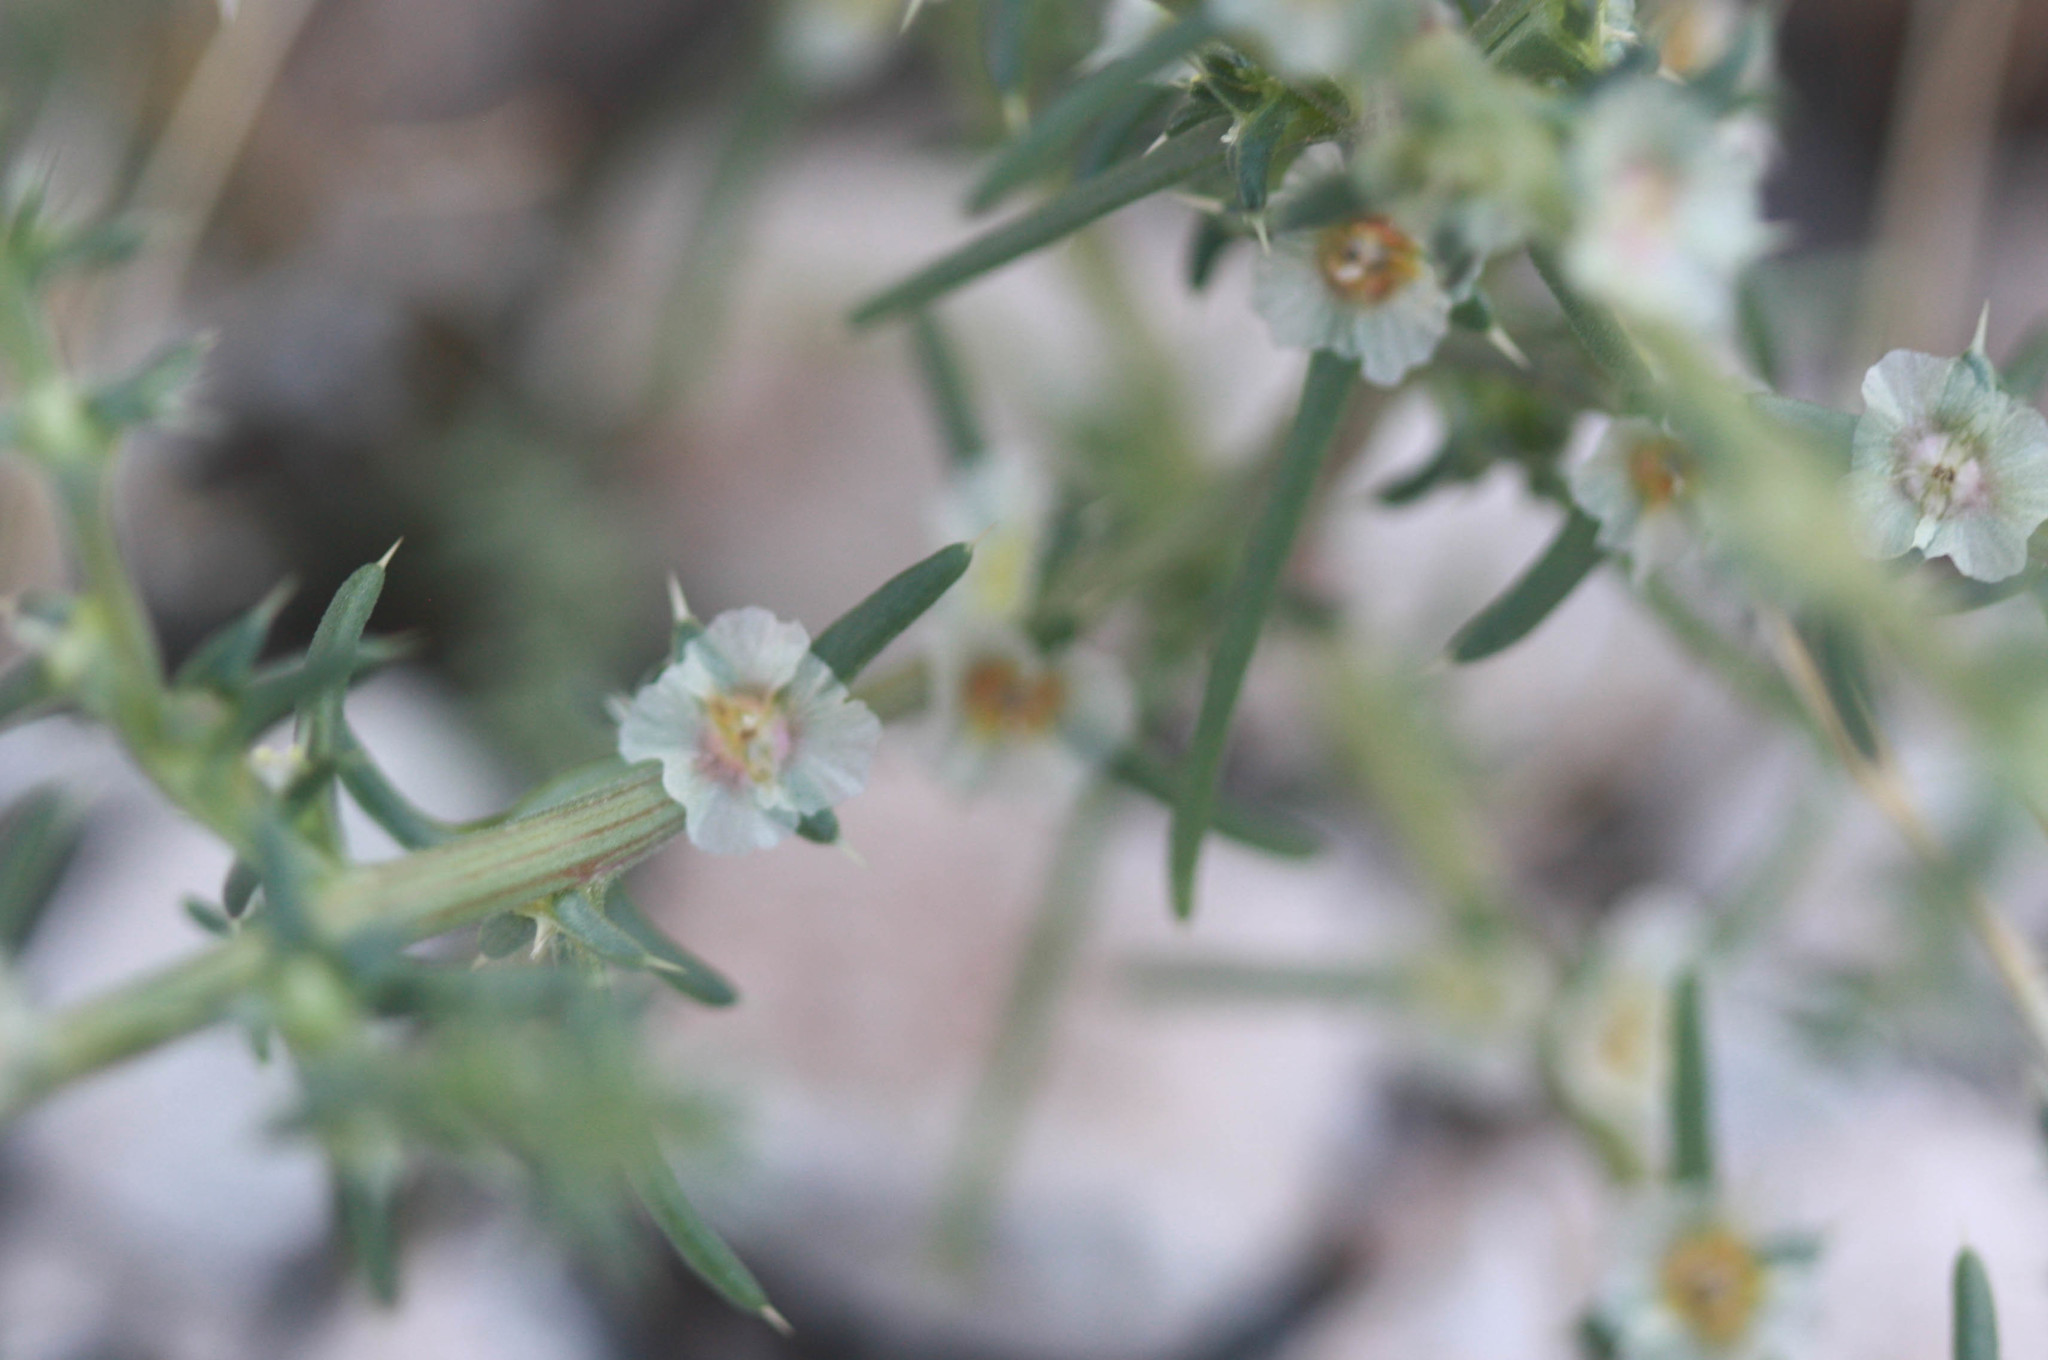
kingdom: Plantae
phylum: Tracheophyta
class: Magnoliopsida
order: Caryophyllales
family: Amaranthaceae
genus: Salsola
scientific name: Salsola tragus
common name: Prickly russian thistle
